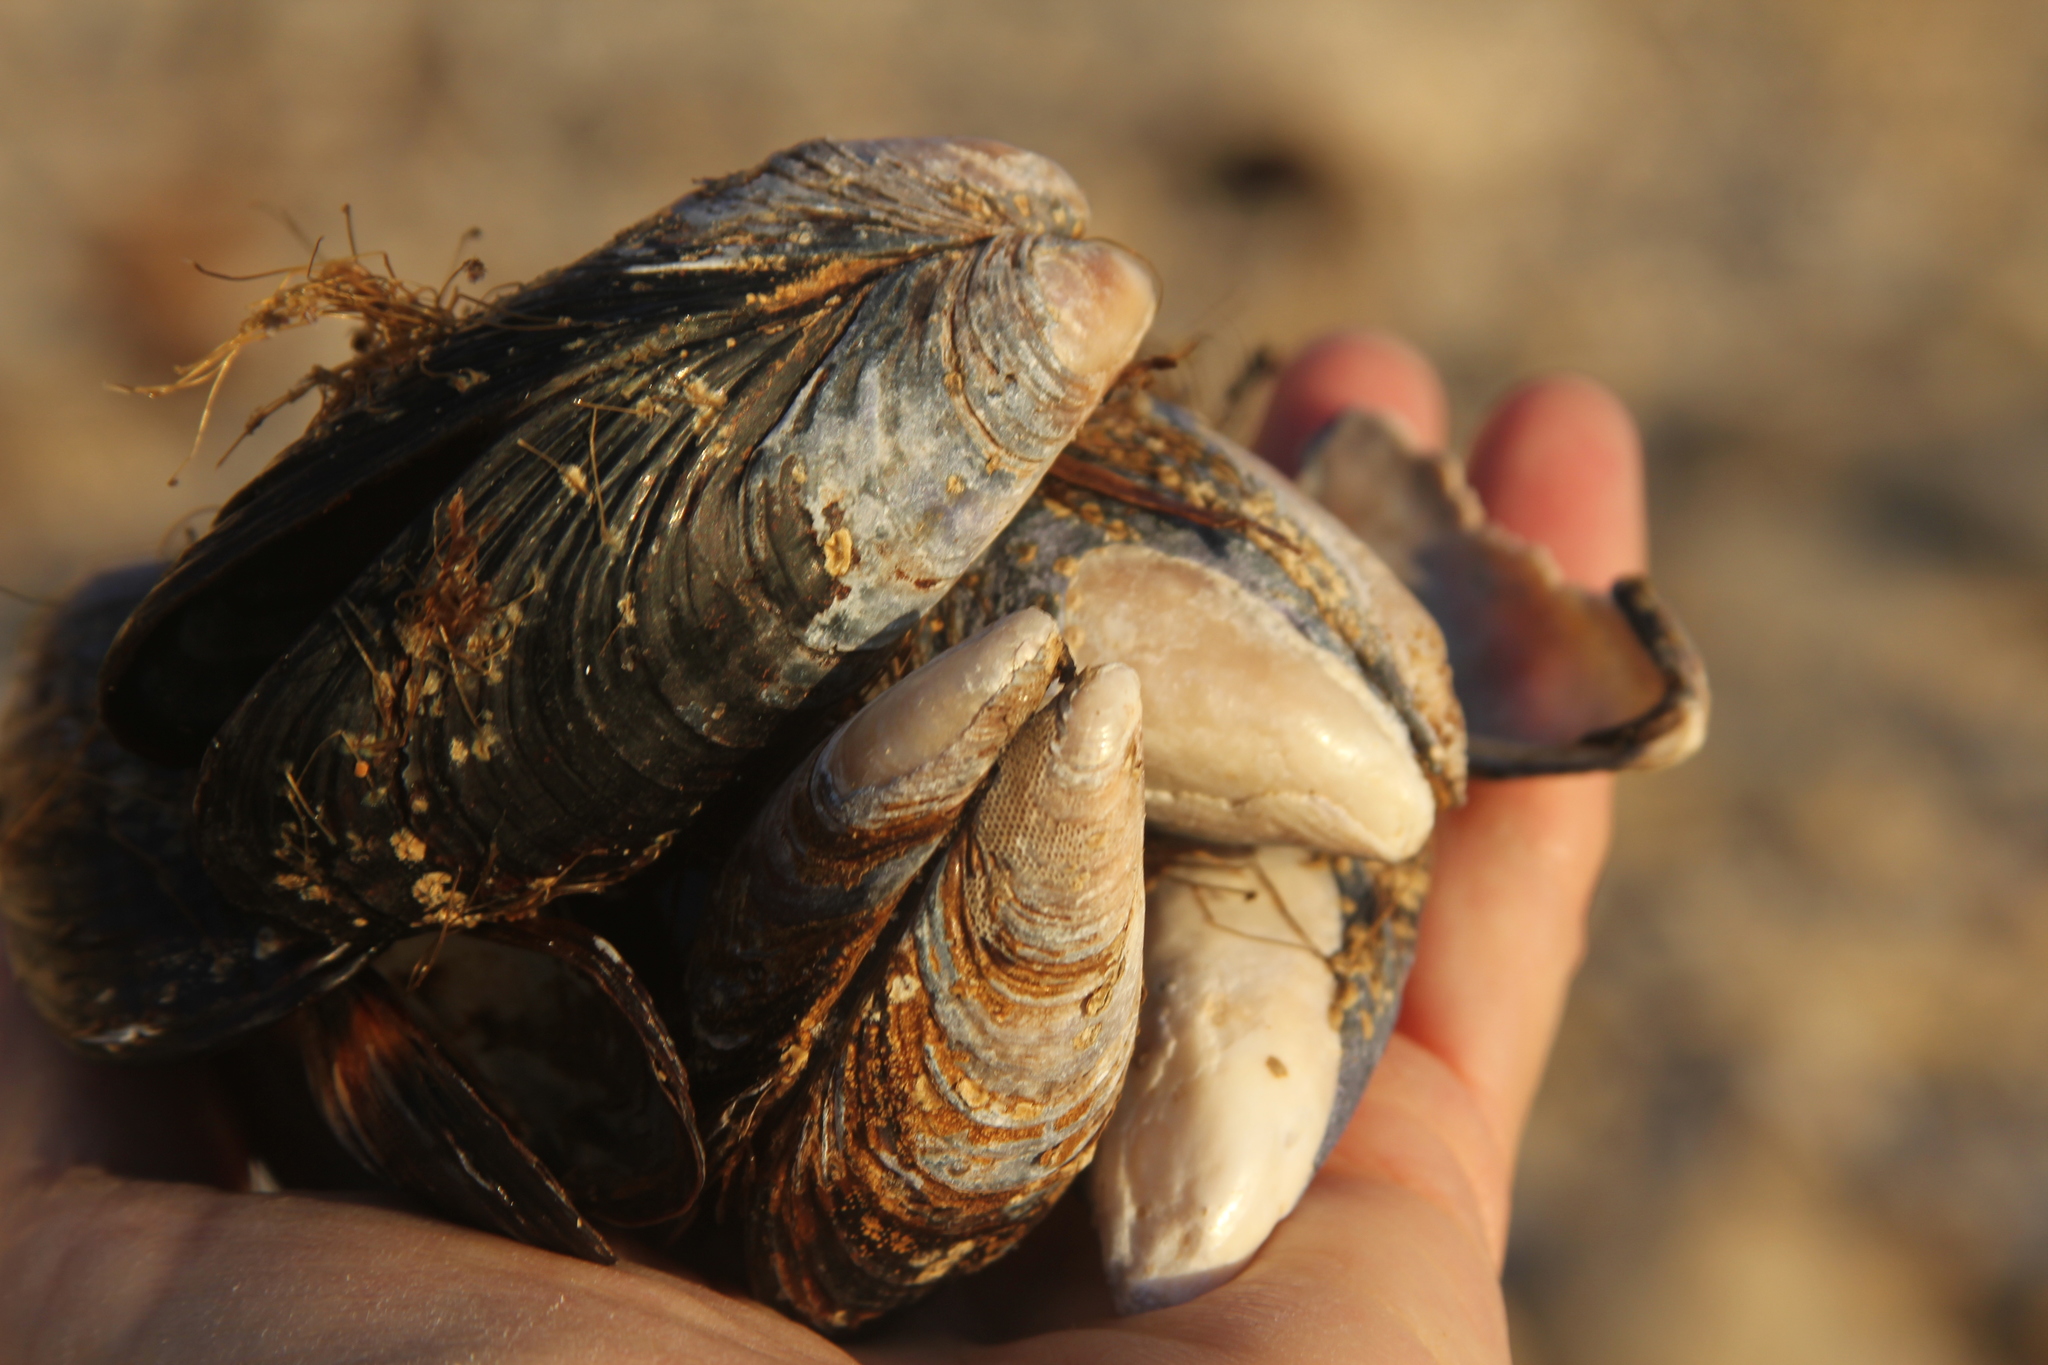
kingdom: Animalia
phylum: Mollusca
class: Bivalvia
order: Mytilida
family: Mytilidae
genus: Mytilus
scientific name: Mytilus californianus
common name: California mussel
